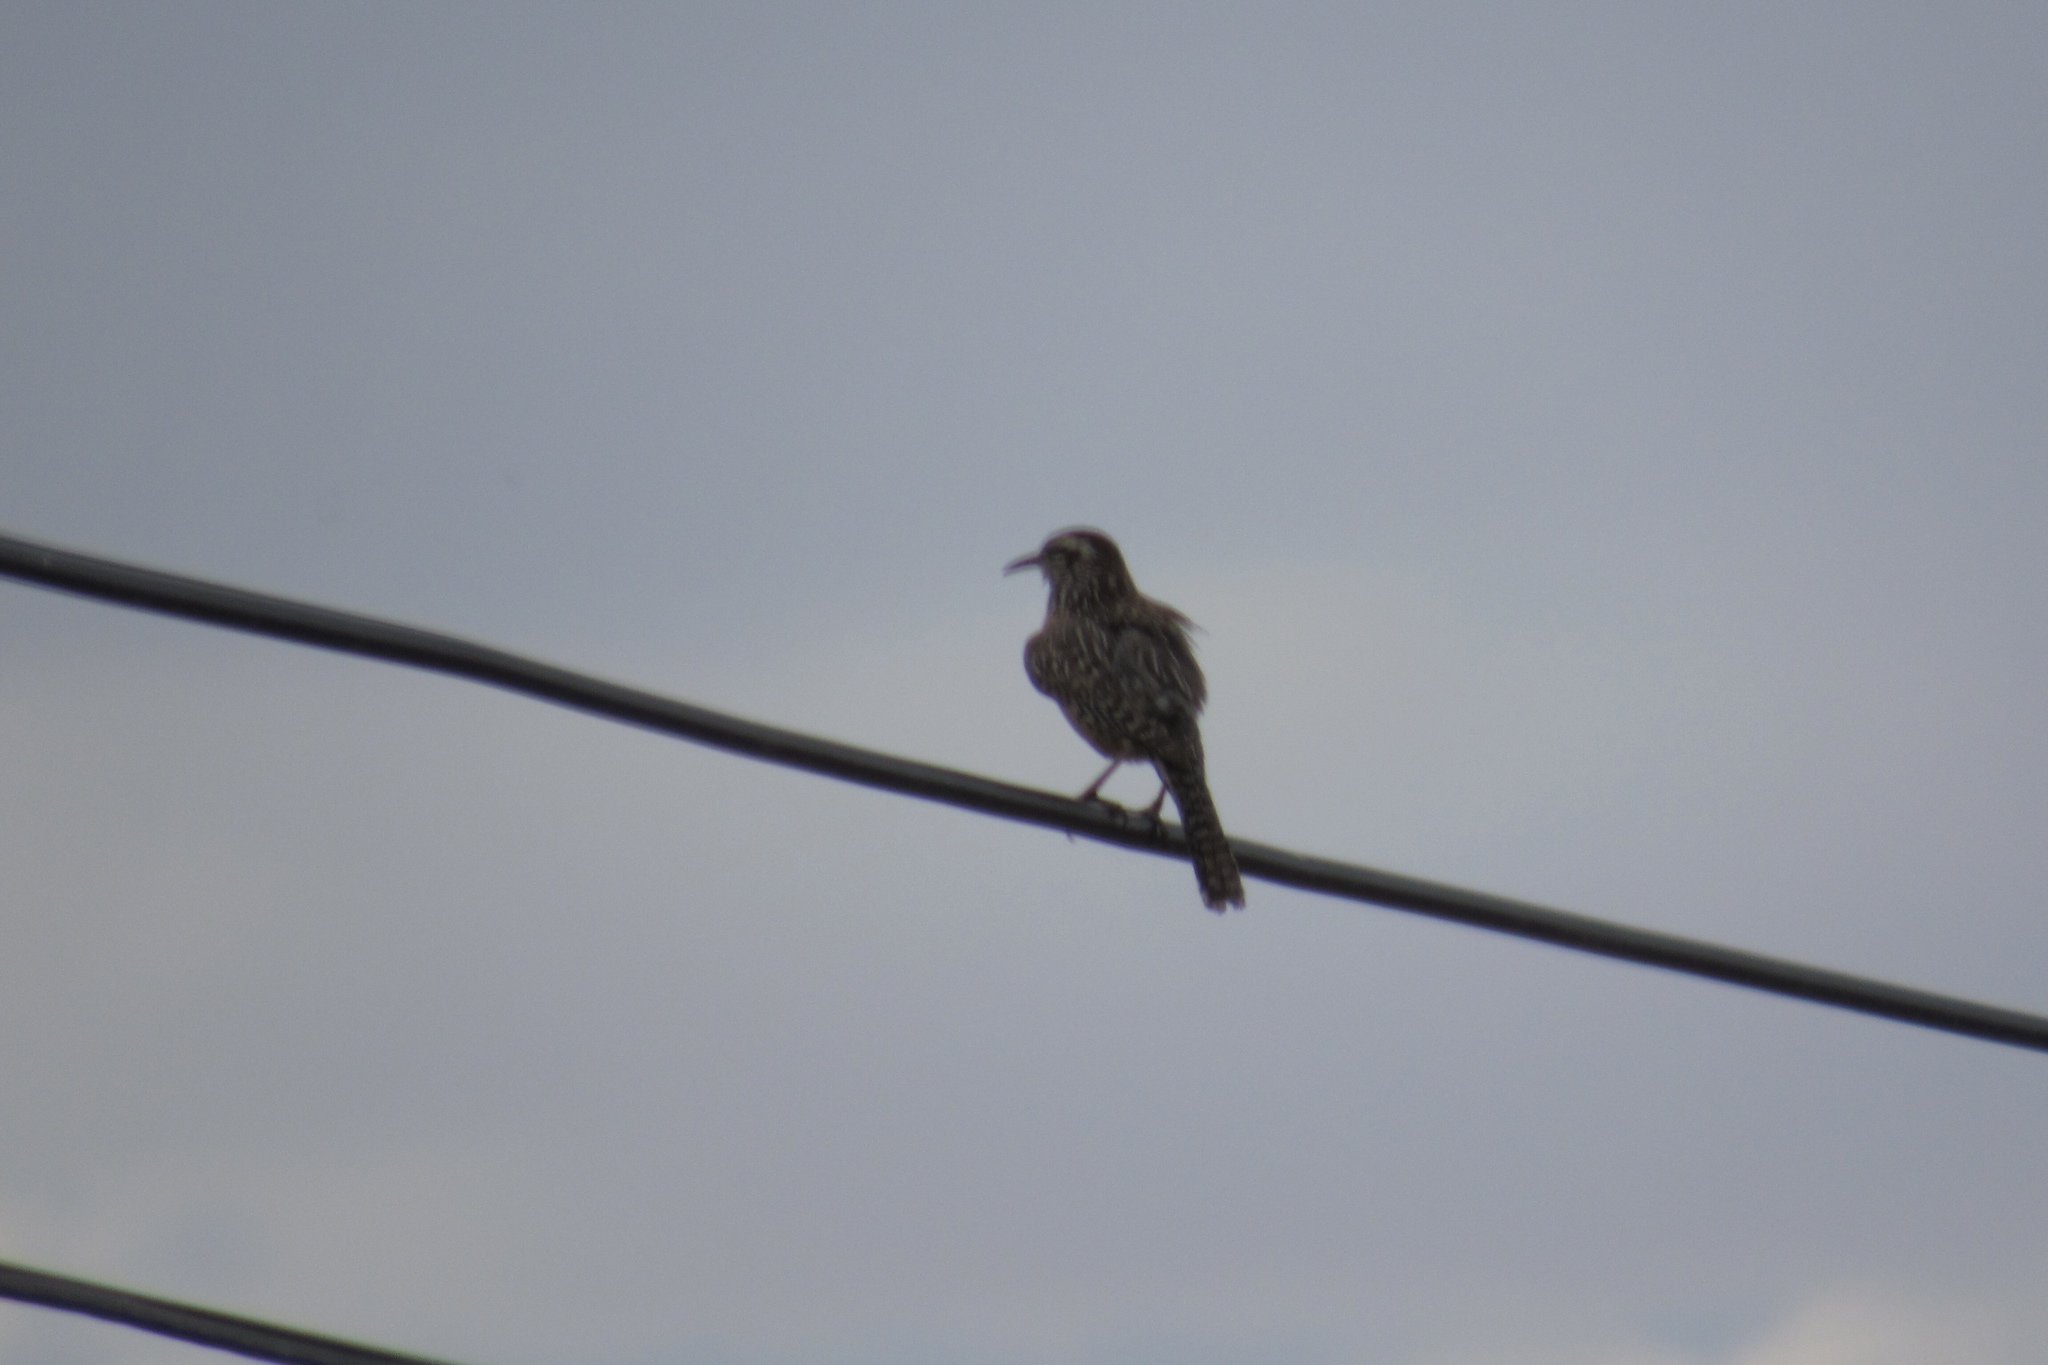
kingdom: Animalia
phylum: Chordata
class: Aves
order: Passeriformes
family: Troglodytidae
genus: Campylorhynchus
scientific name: Campylorhynchus brunneicapillus
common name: Cactus wren
